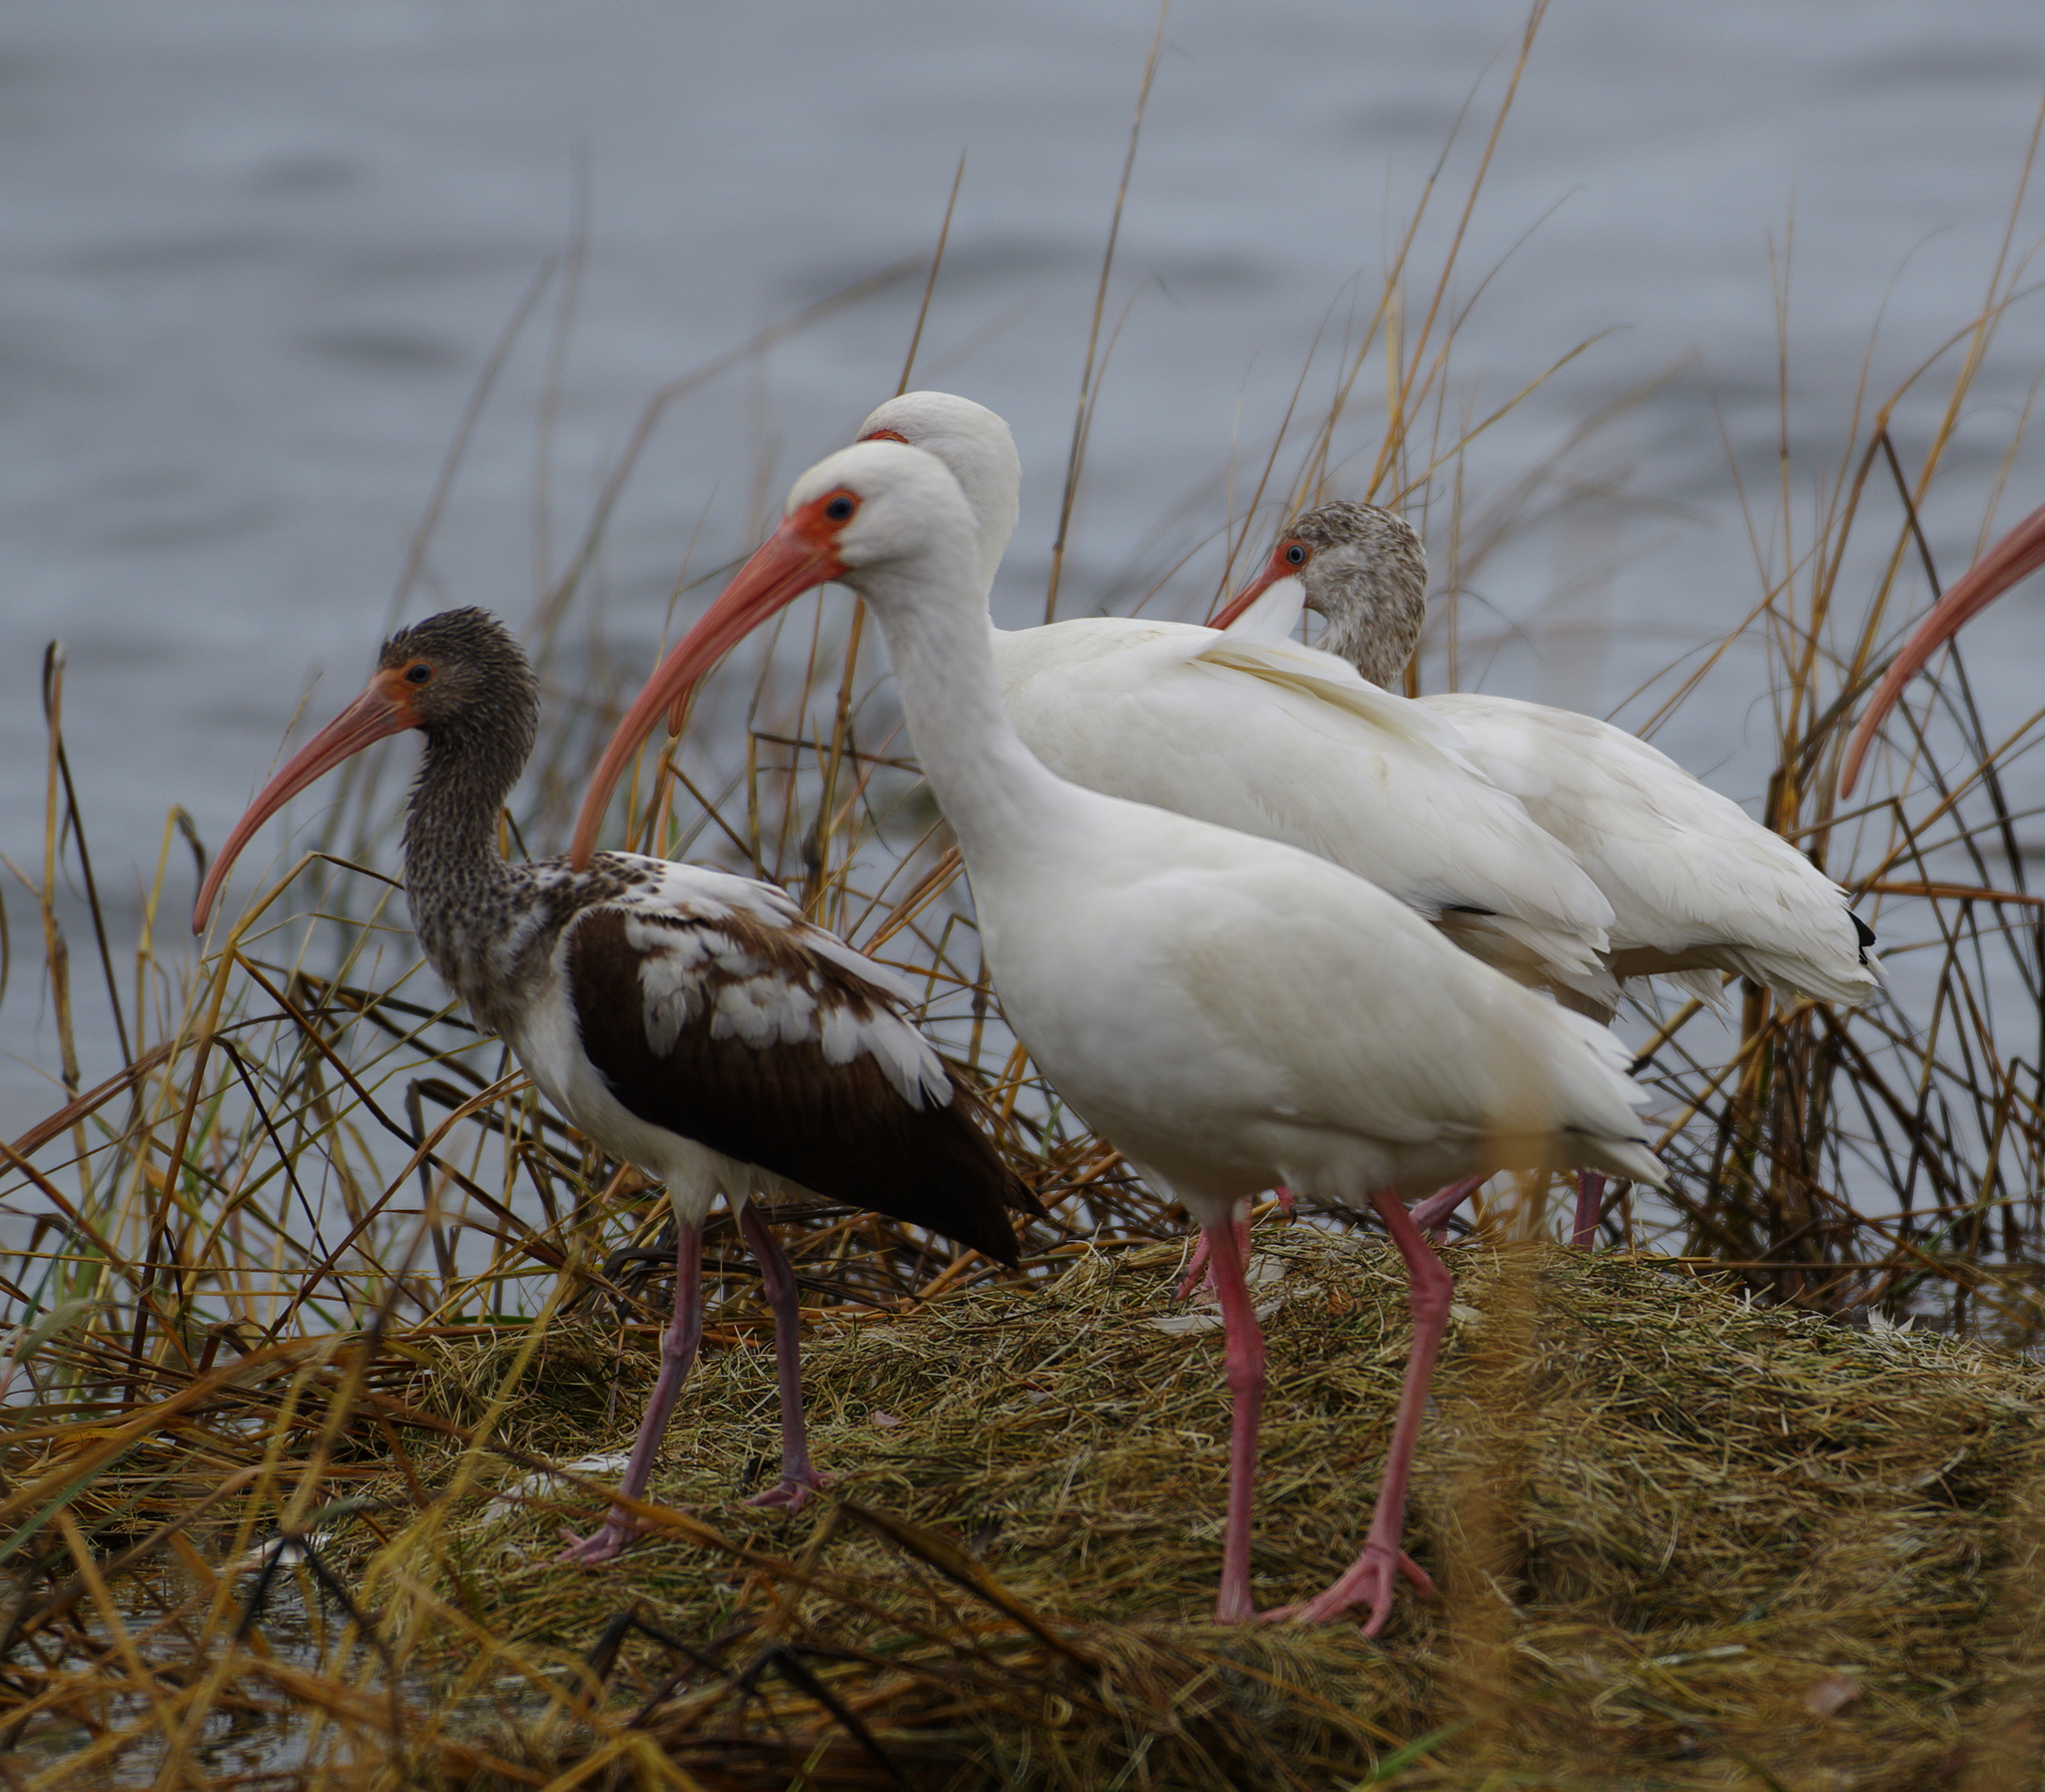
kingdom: Animalia
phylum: Chordata
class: Aves
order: Pelecaniformes
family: Threskiornithidae
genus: Eudocimus
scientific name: Eudocimus albus
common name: White ibis
